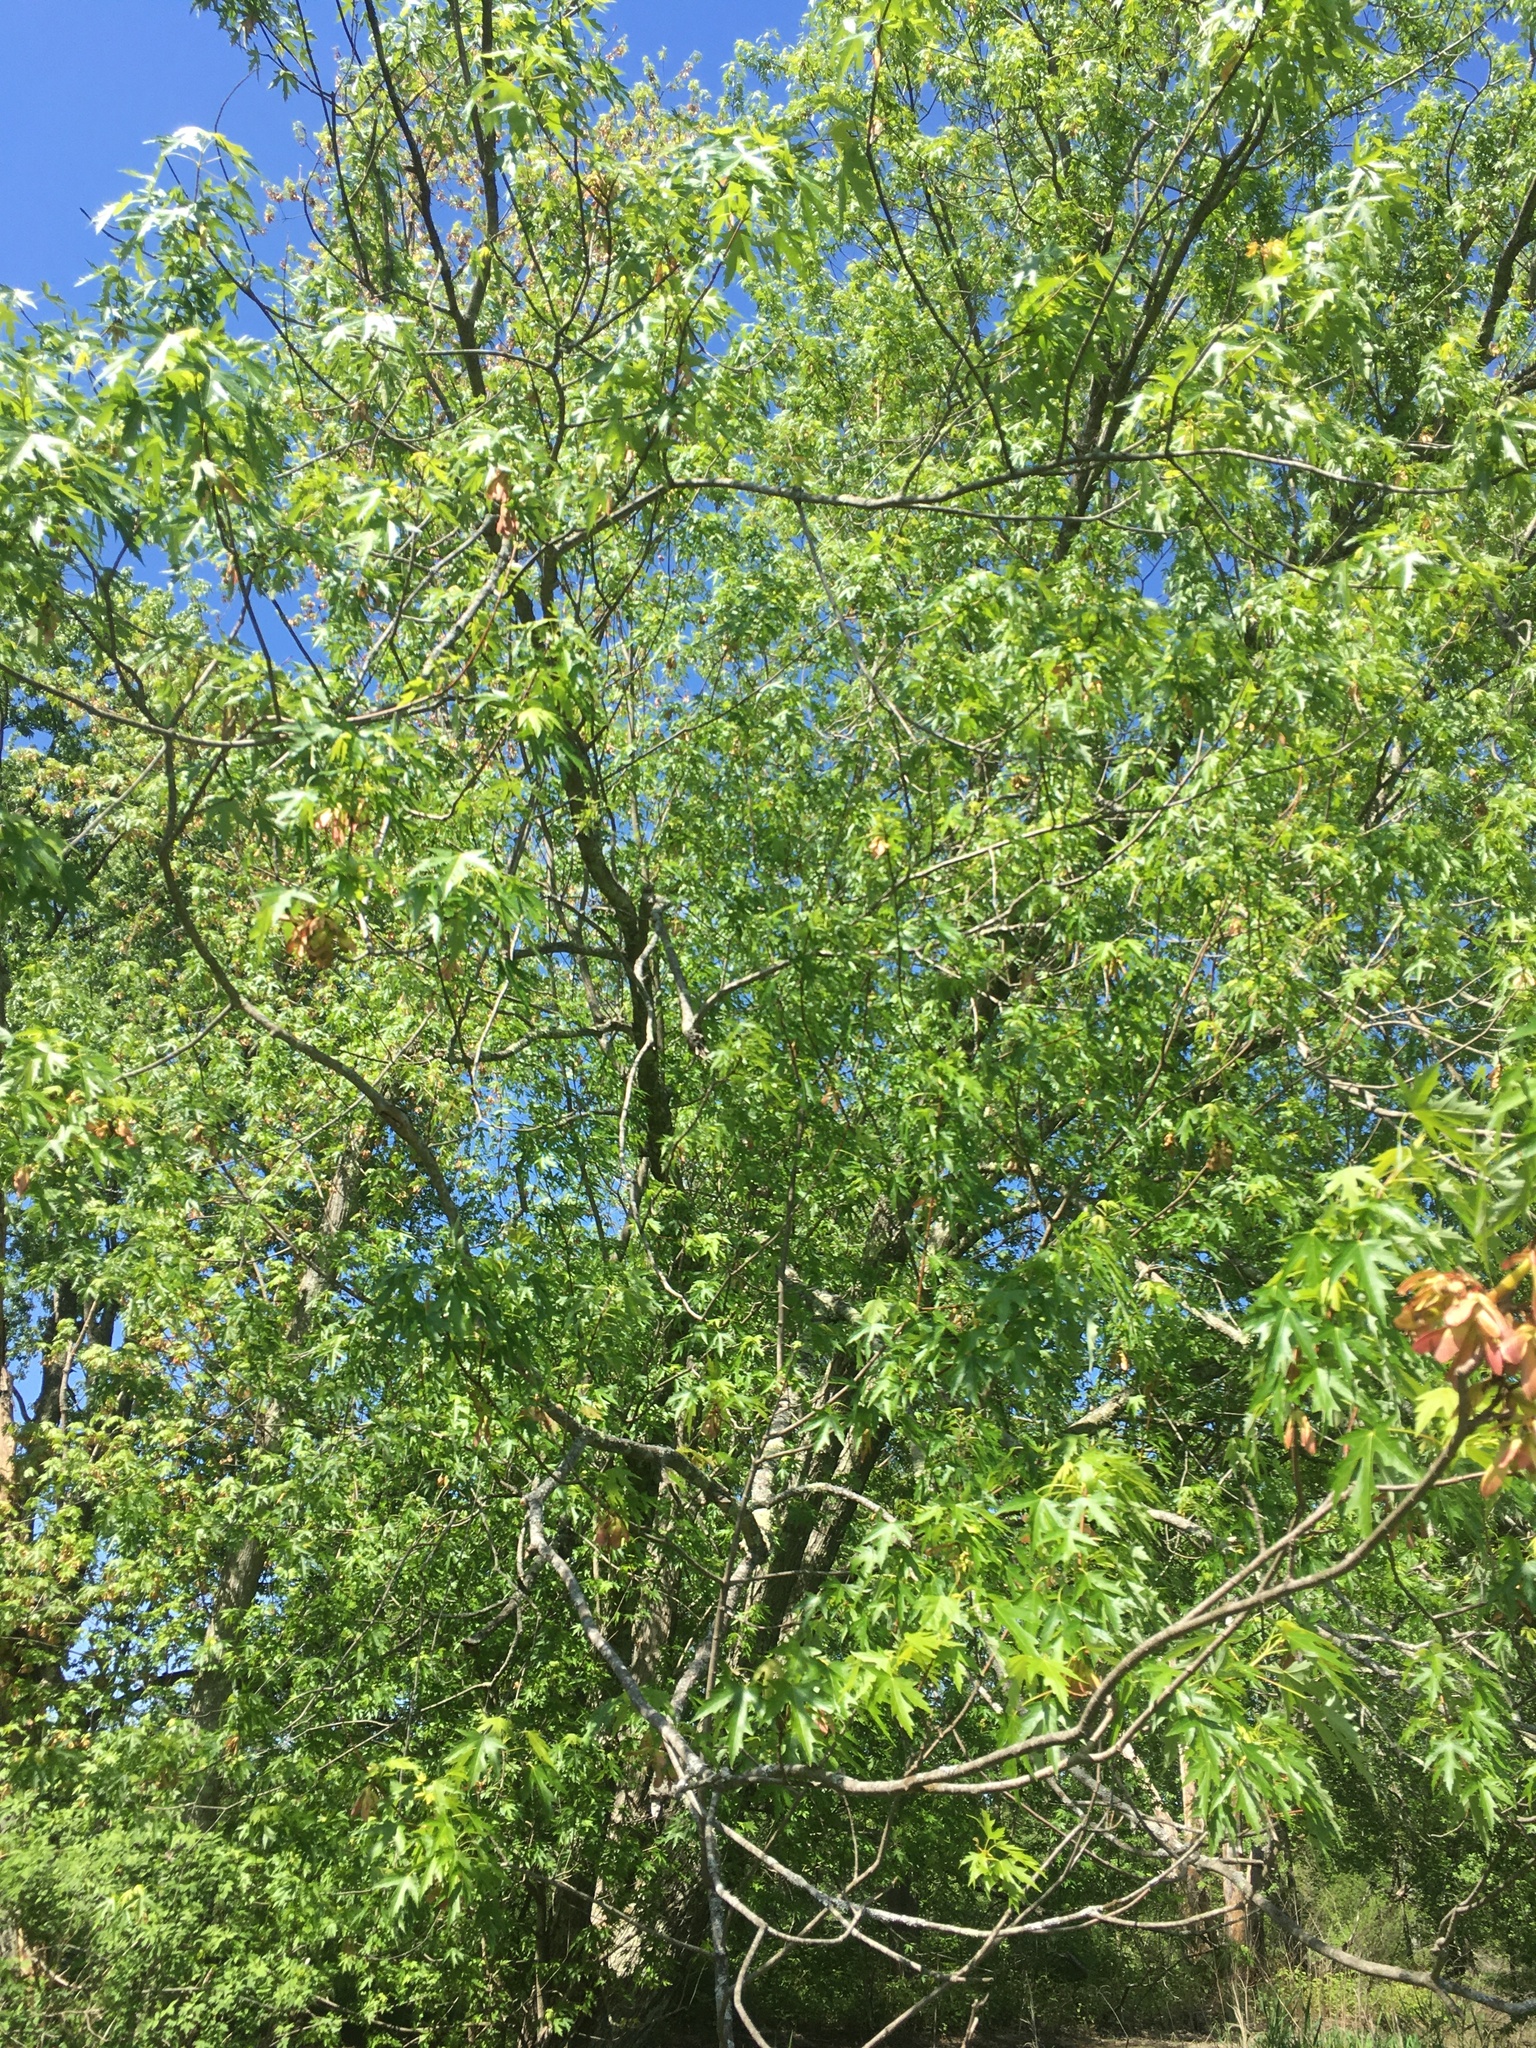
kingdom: Plantae
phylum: Tracheophyta
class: Magnoliopsida
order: Sapindales
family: Sapindaceae
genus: Acer
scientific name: Acer saccharinum
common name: Silver maple
